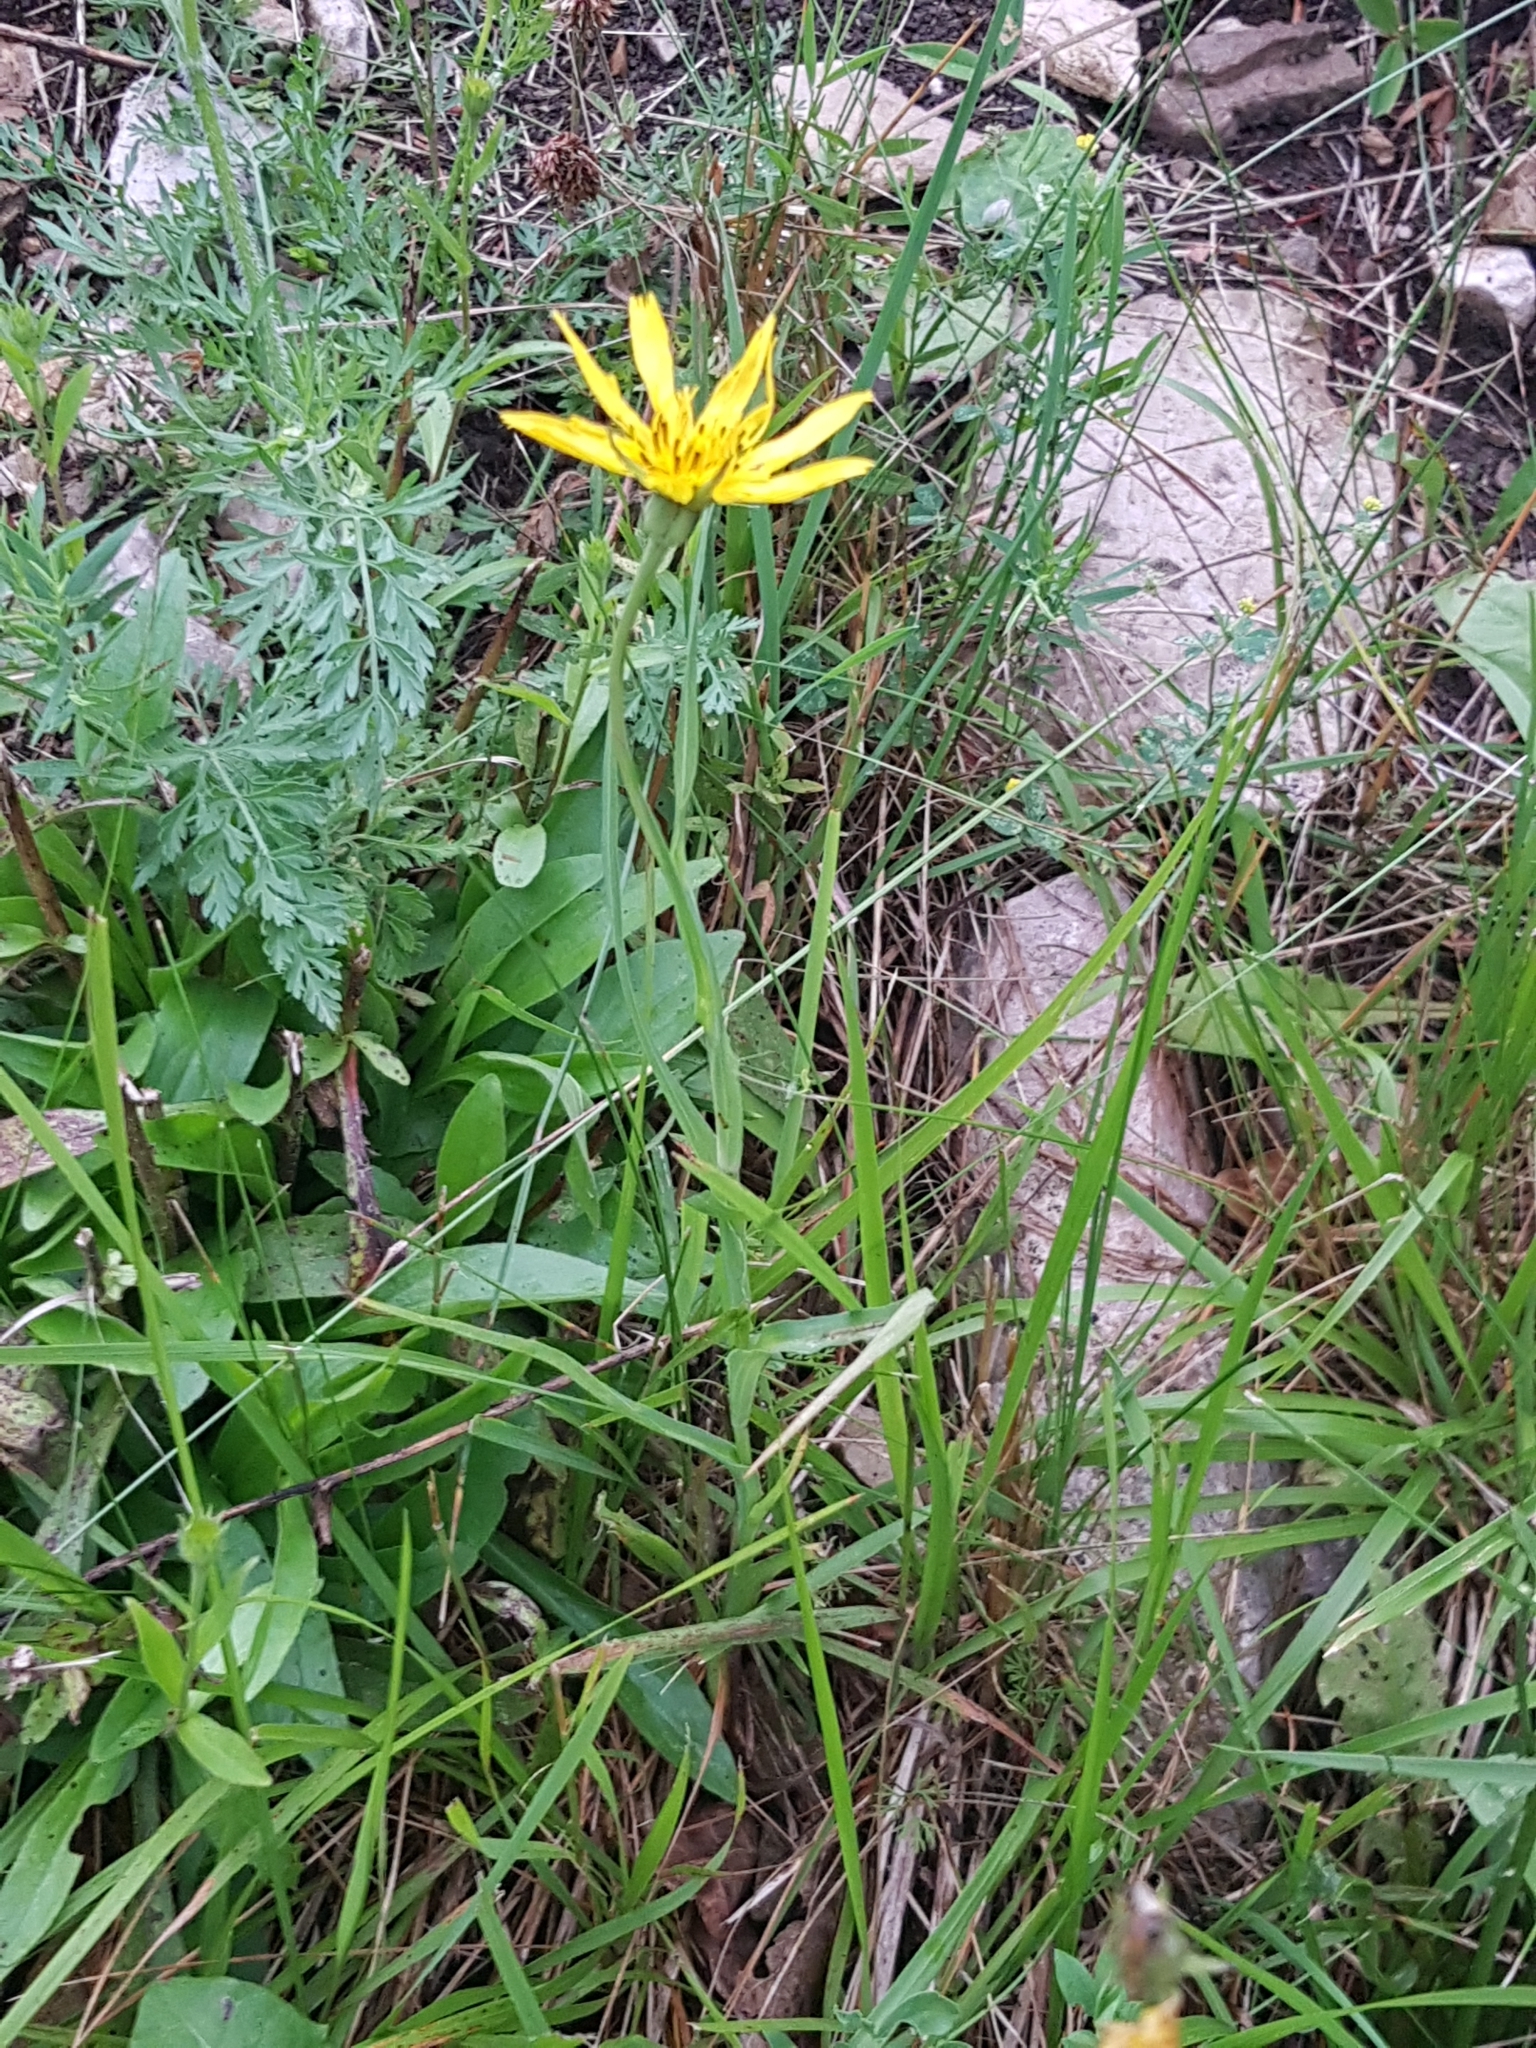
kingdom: Plantae
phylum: Tracheophyta
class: Magnoliopsida
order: Asterales
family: Asteraceae
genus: Tragopogon
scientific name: Tragopogon orientalis
